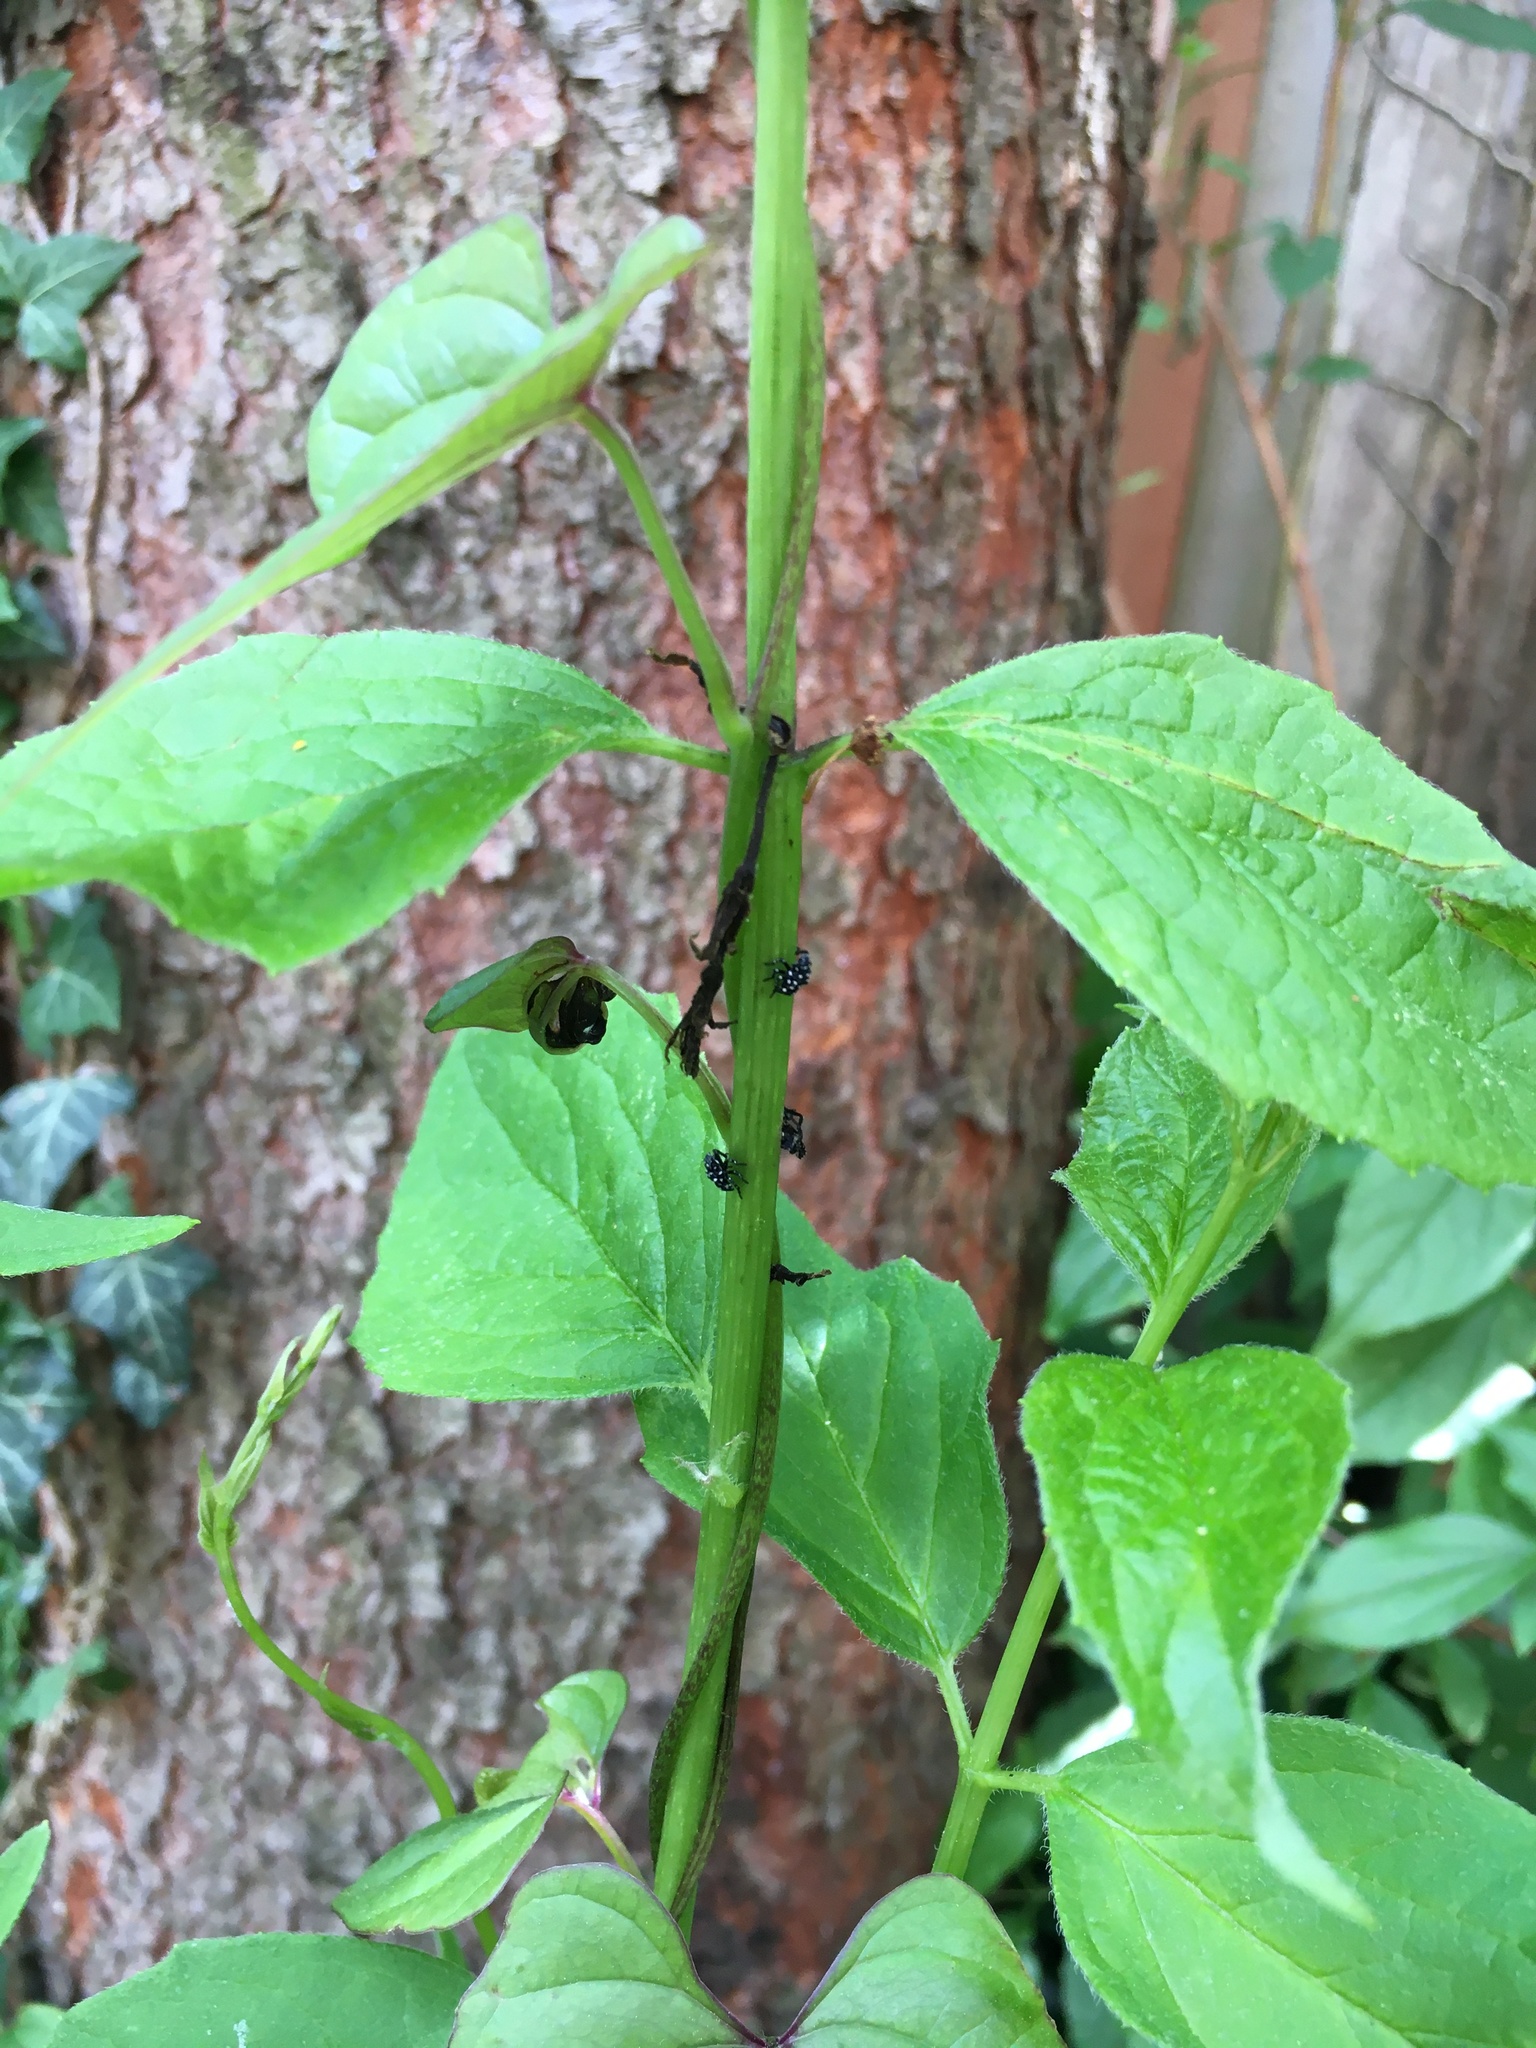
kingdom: Animalia
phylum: Arthropoda
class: Insecta
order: Hemiptera
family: Fulgoridae
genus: Lycorma
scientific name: Lycorma delicatula
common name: Spotted lanternfly
